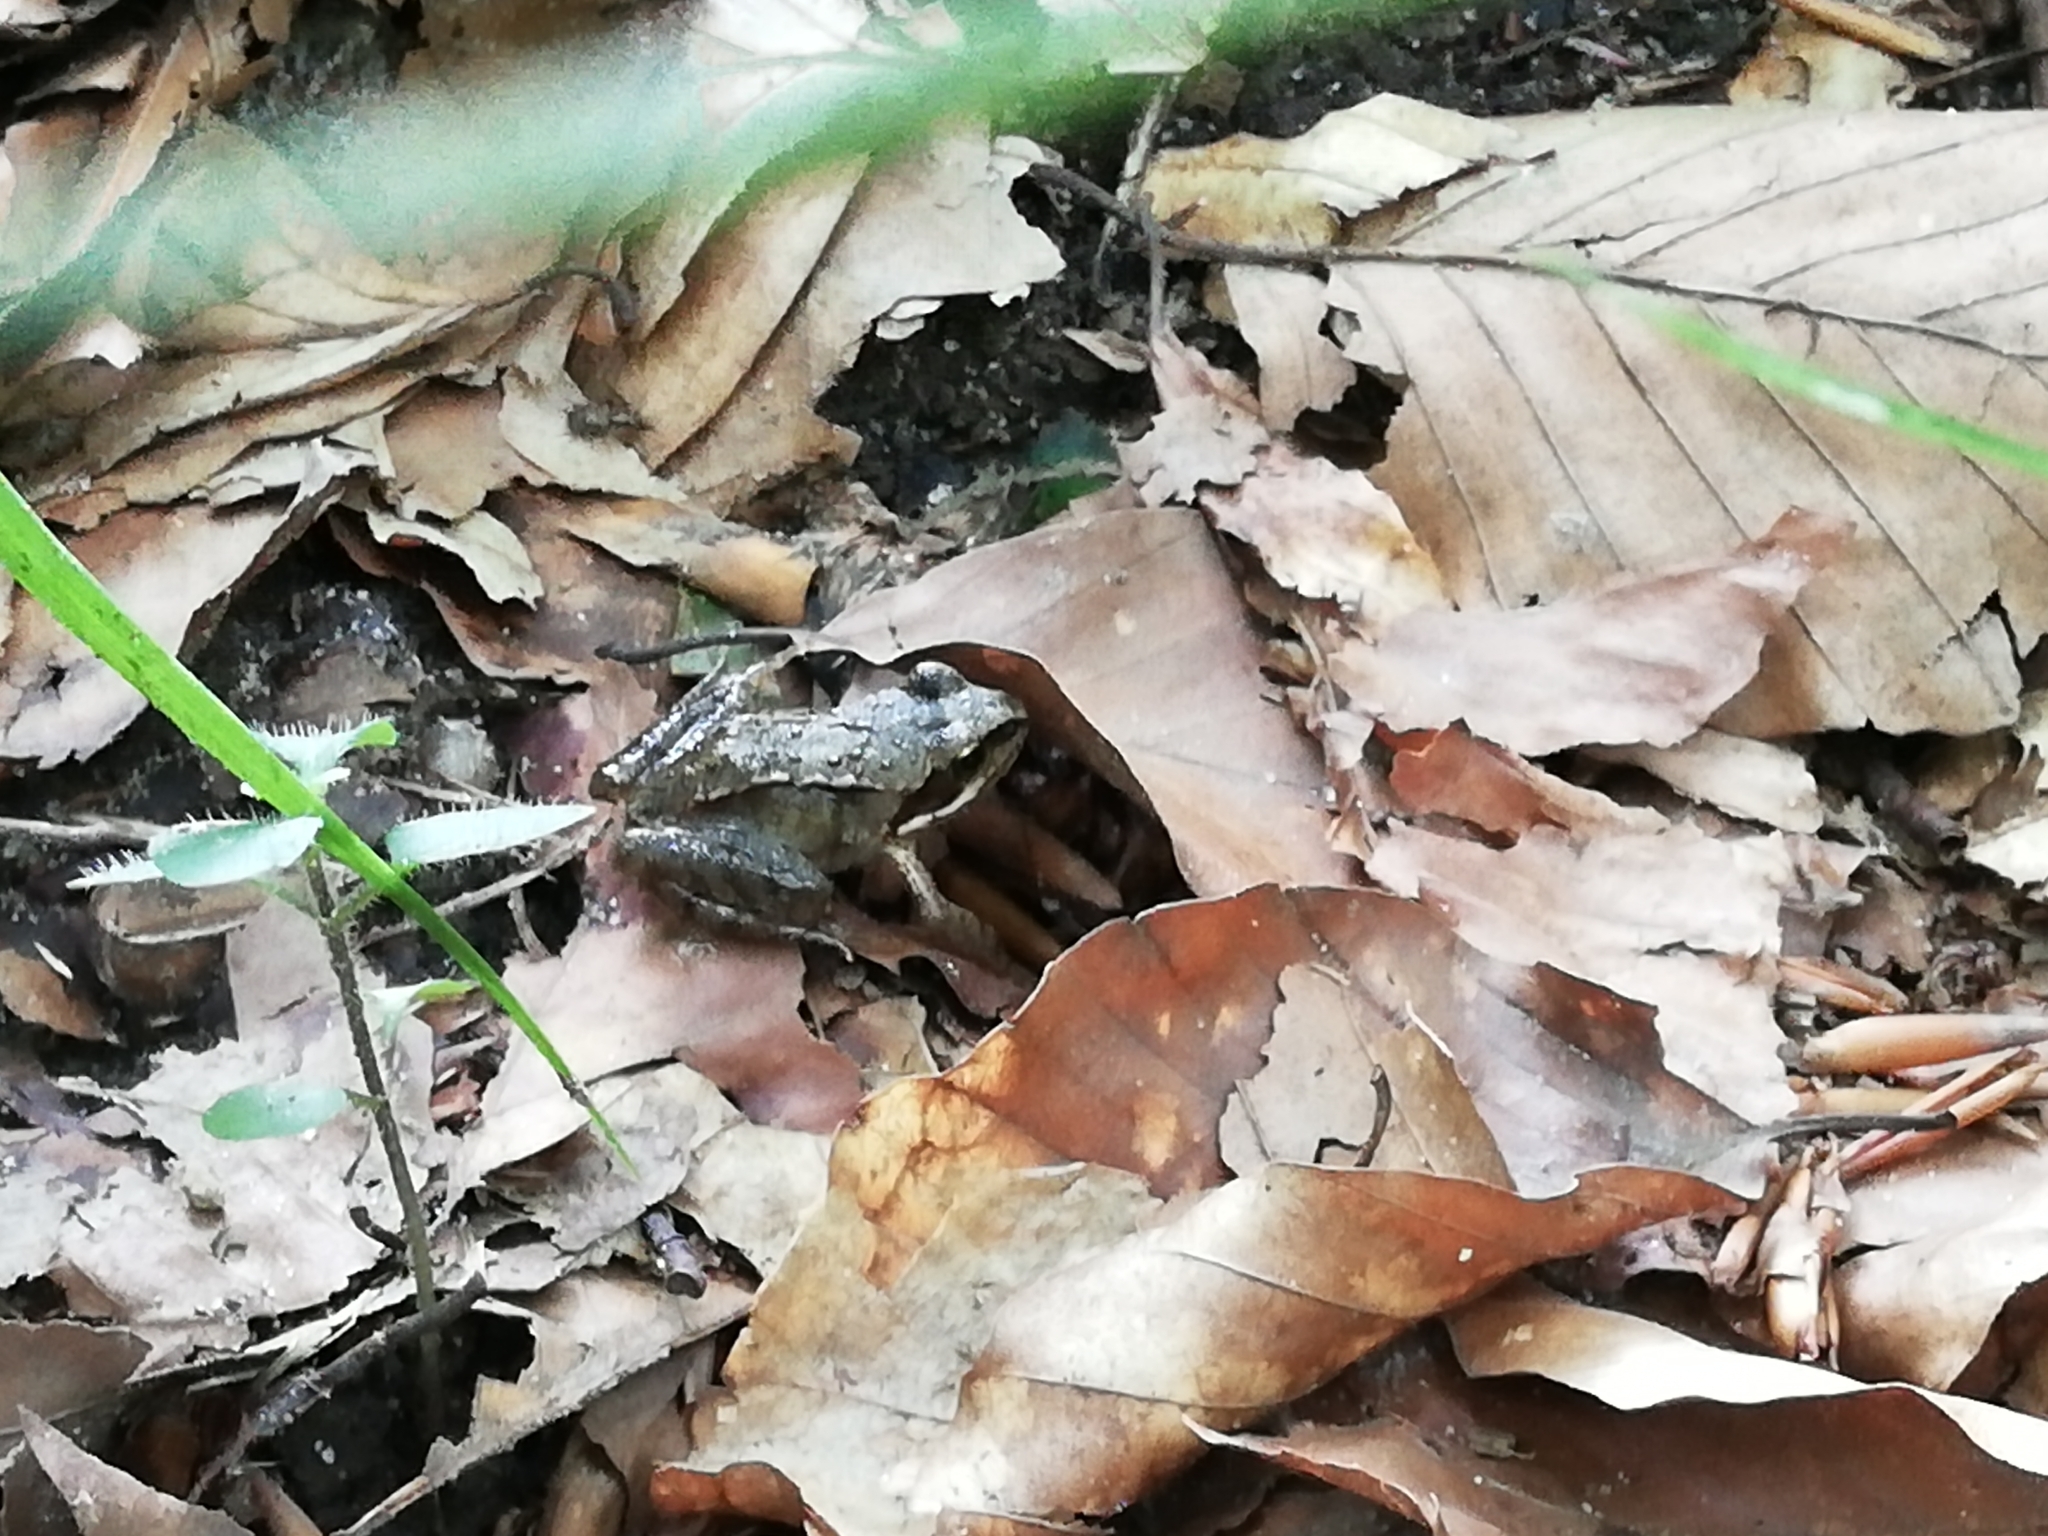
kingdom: Animalia
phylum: Chordata
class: Amphibia
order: Anura
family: Ranidae
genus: Rana
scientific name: Rana temporaria
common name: Common frog
